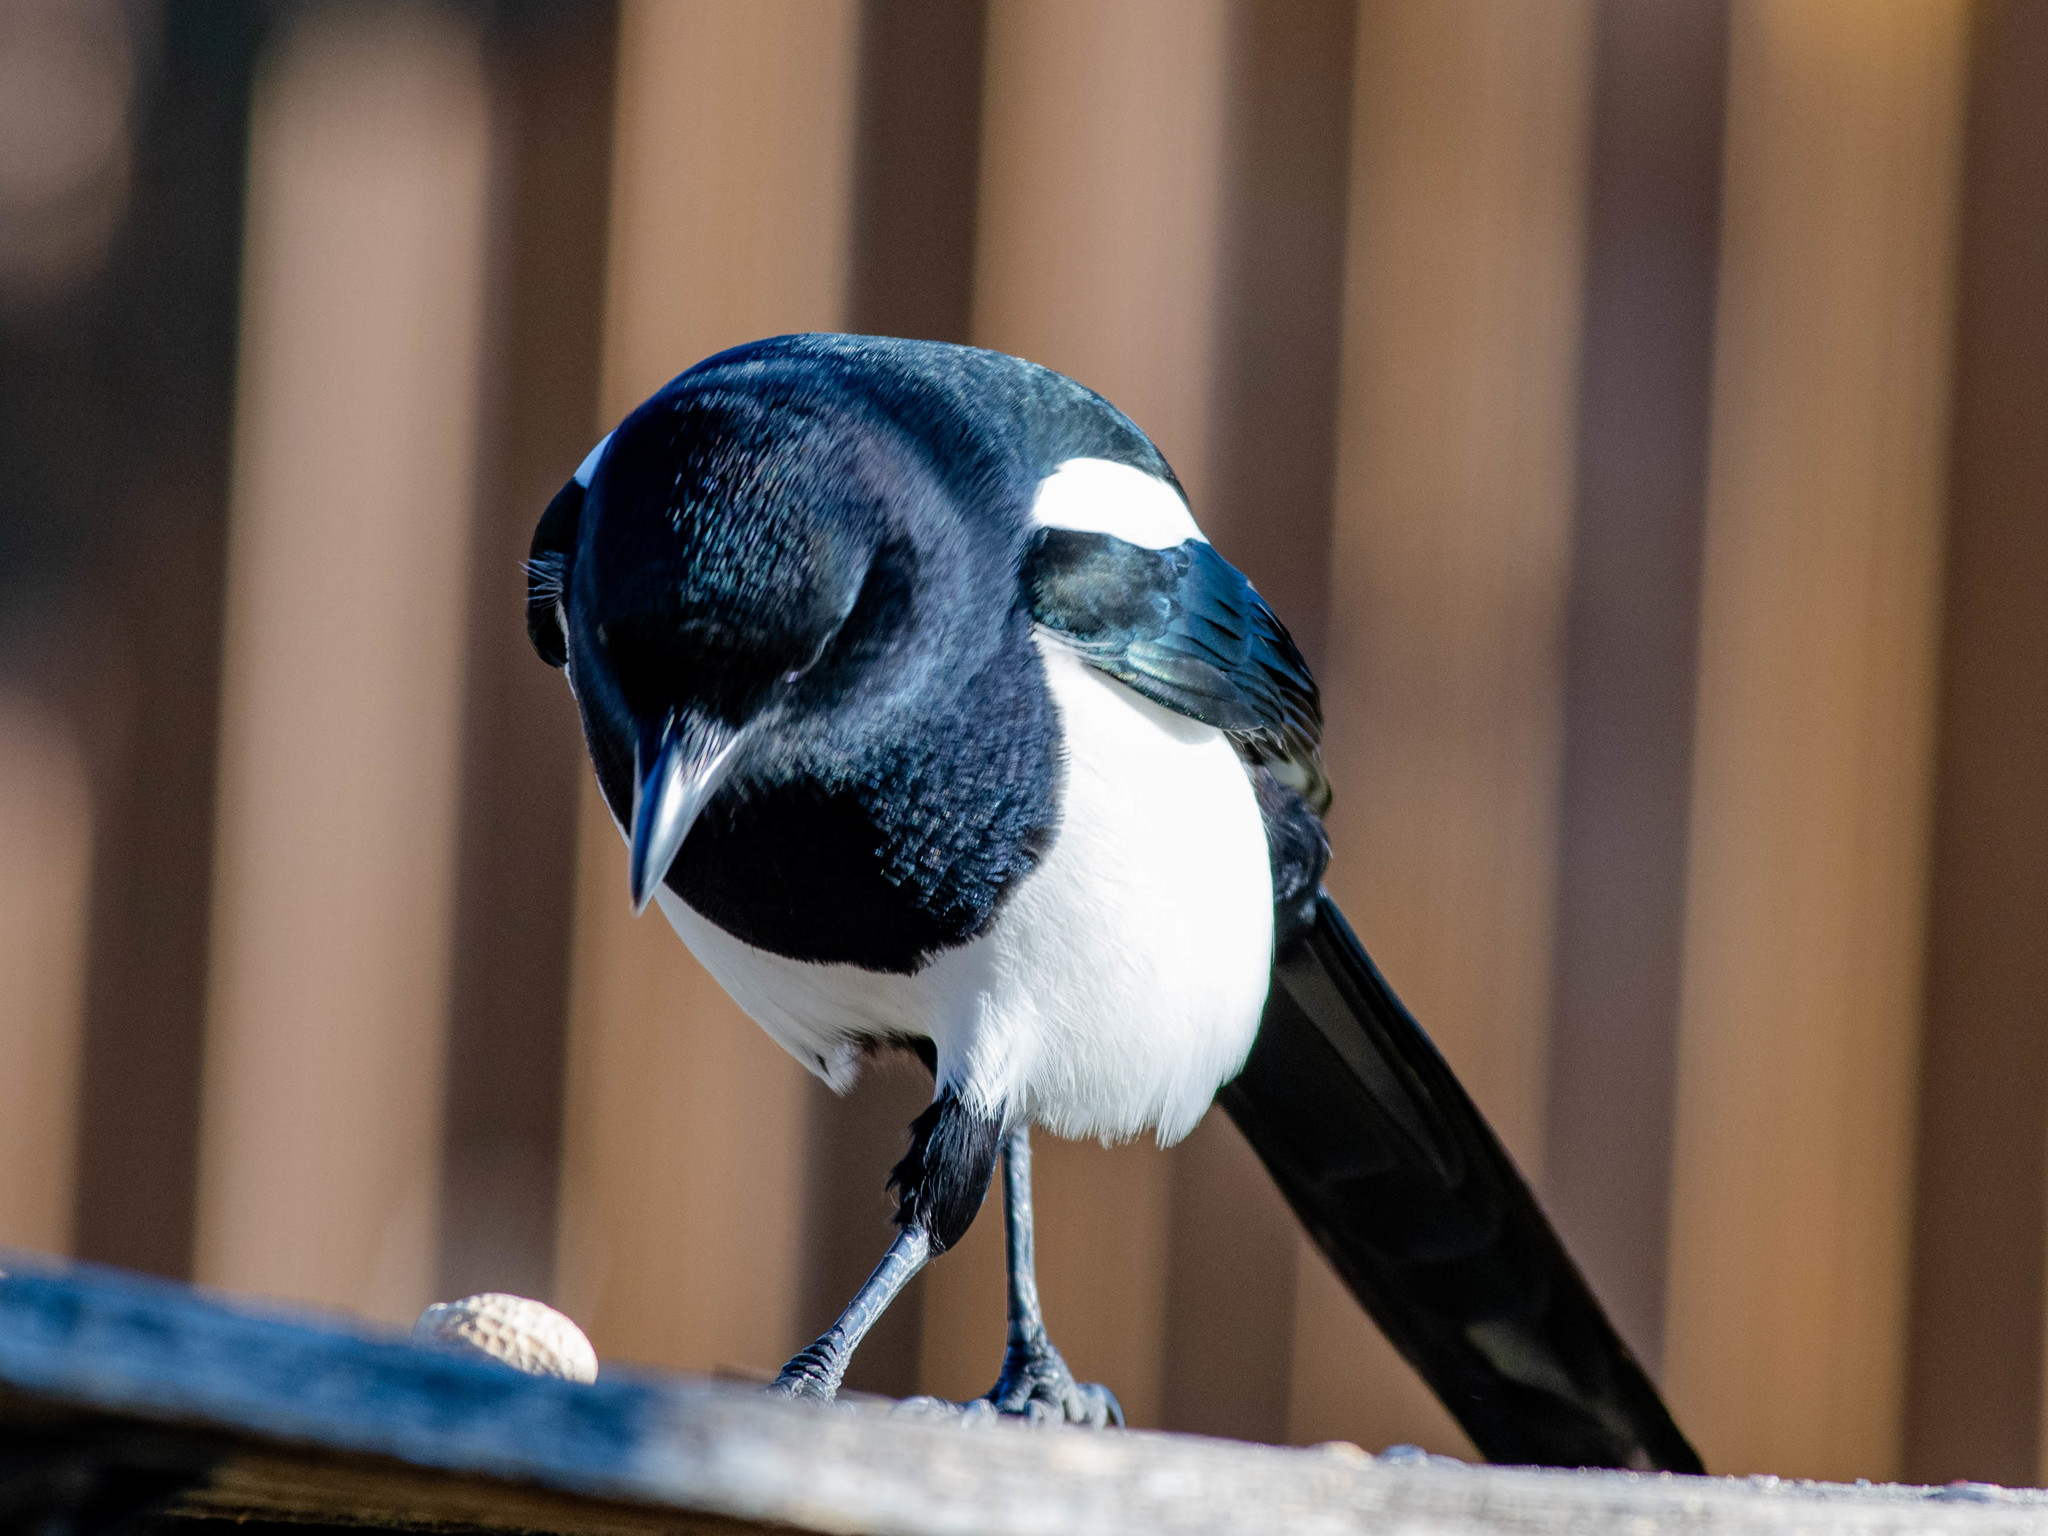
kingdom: Animalia
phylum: Chordata
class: Aves
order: Passeriformes
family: Corvidae
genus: Pica
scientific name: Pica hudsonia
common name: Black-billed magpie
